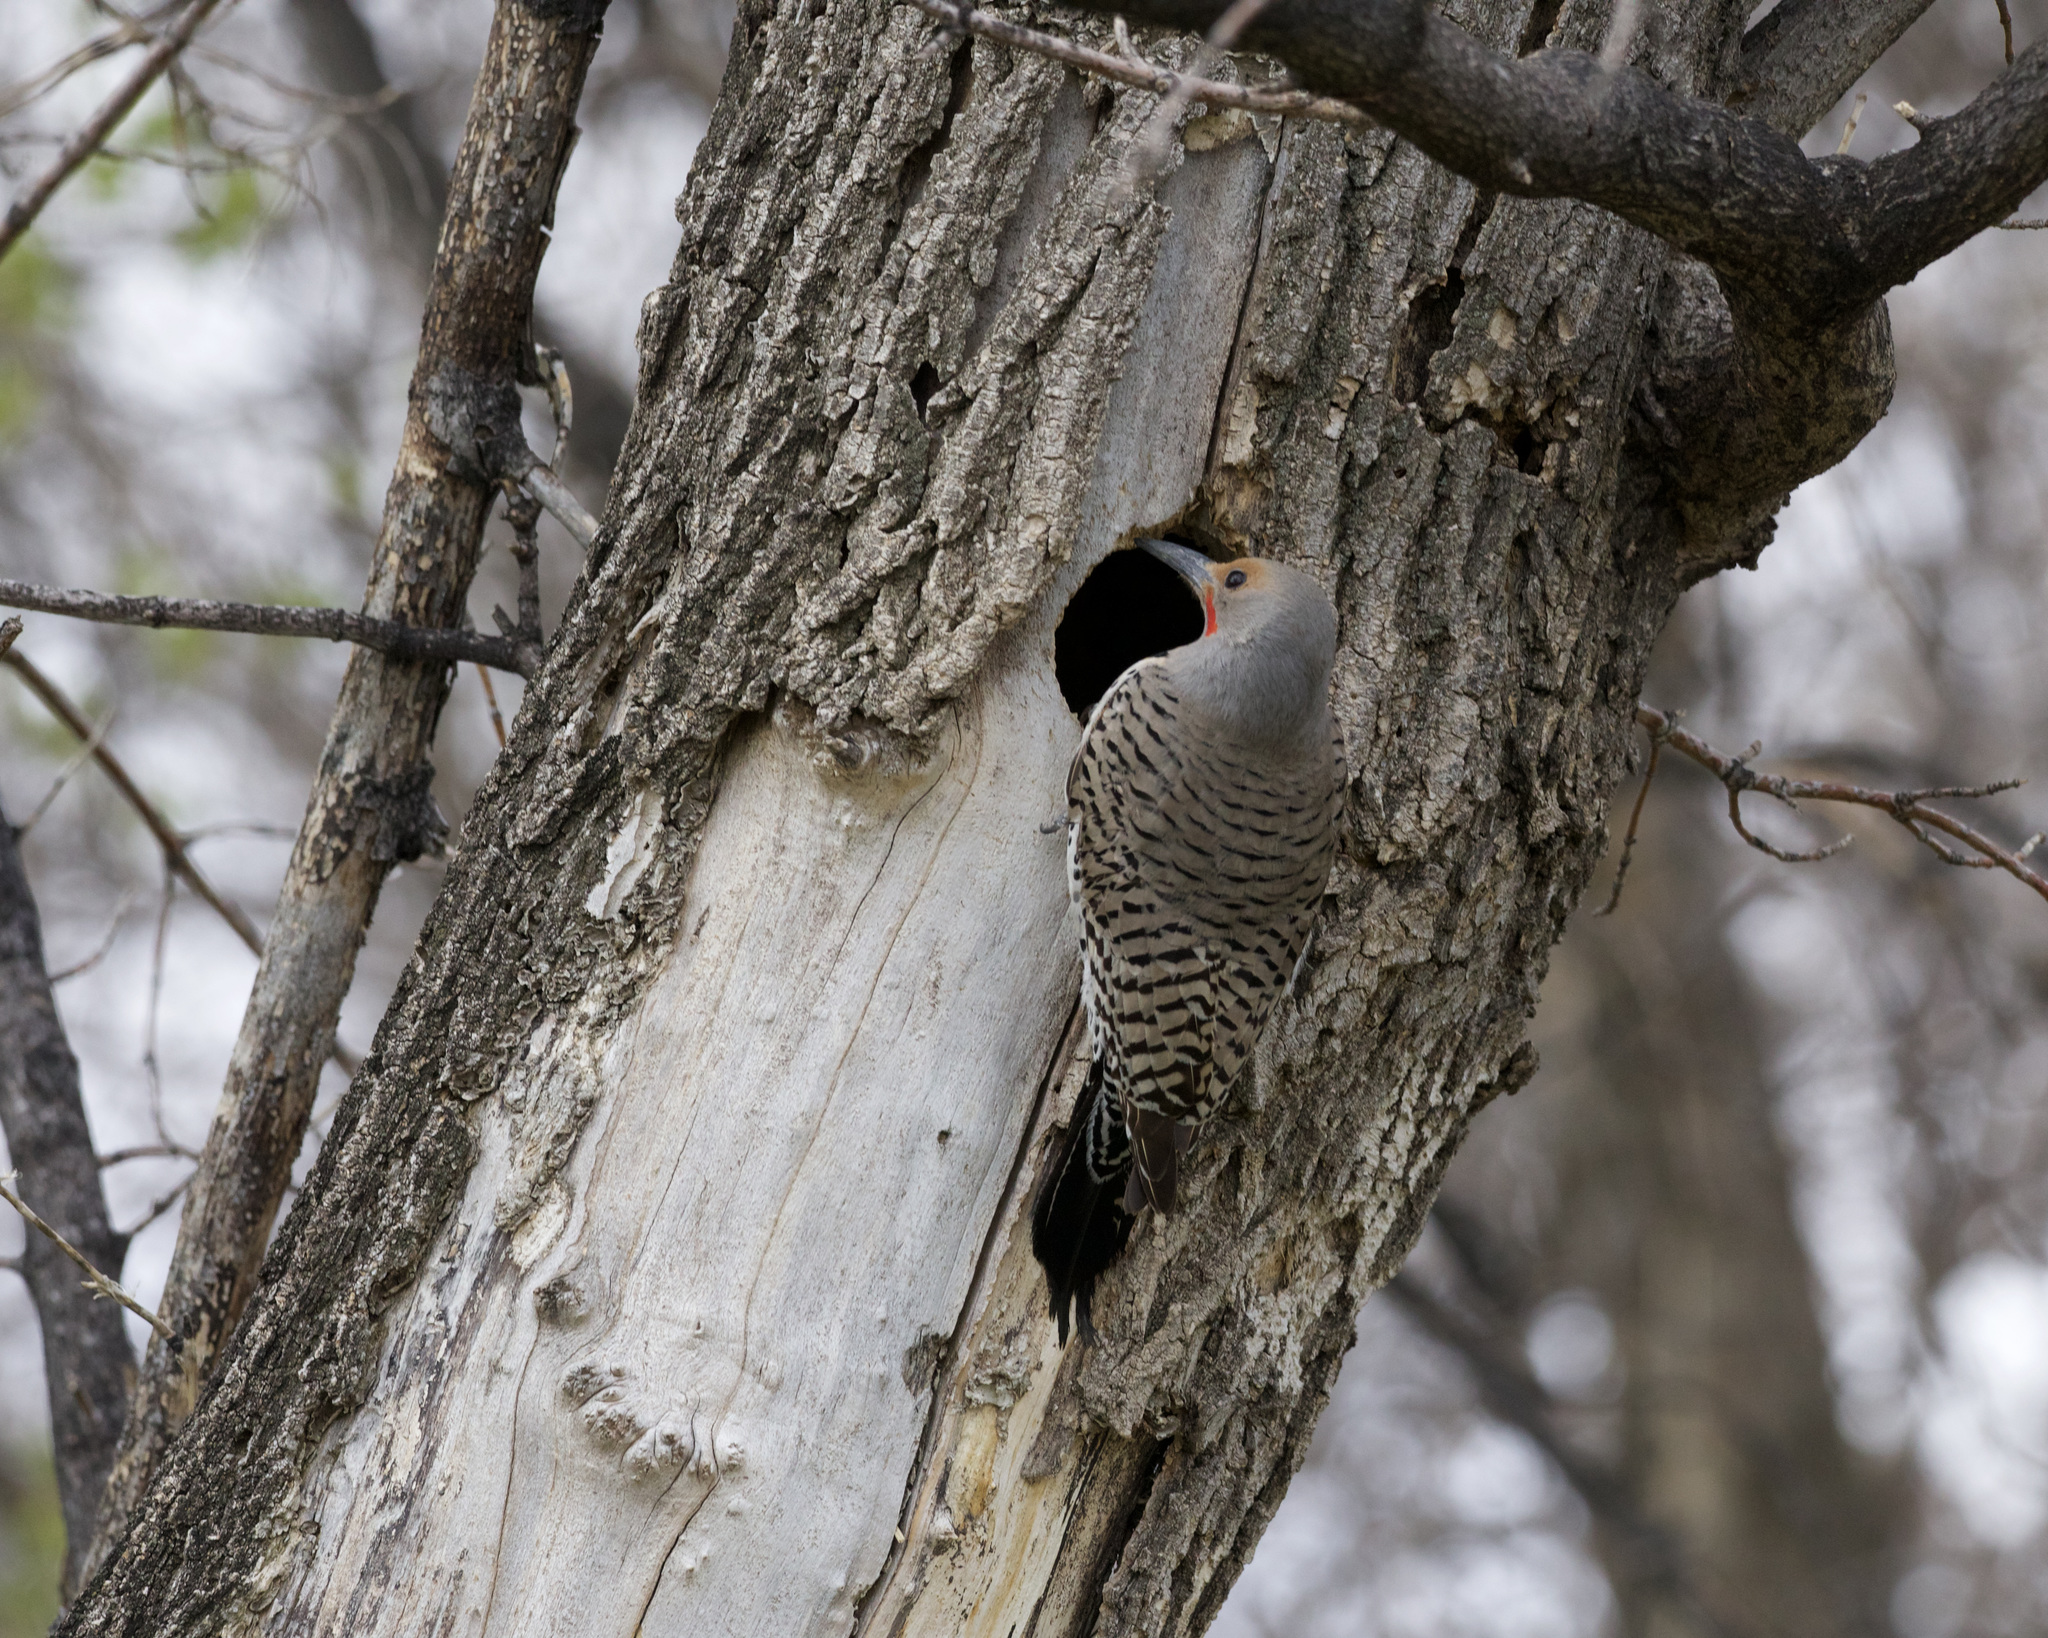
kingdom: Animalia
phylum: Chordata
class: Aves
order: Piciformes
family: Picidae
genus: Colaptes
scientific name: Colaptes auratus
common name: Northern flicker
